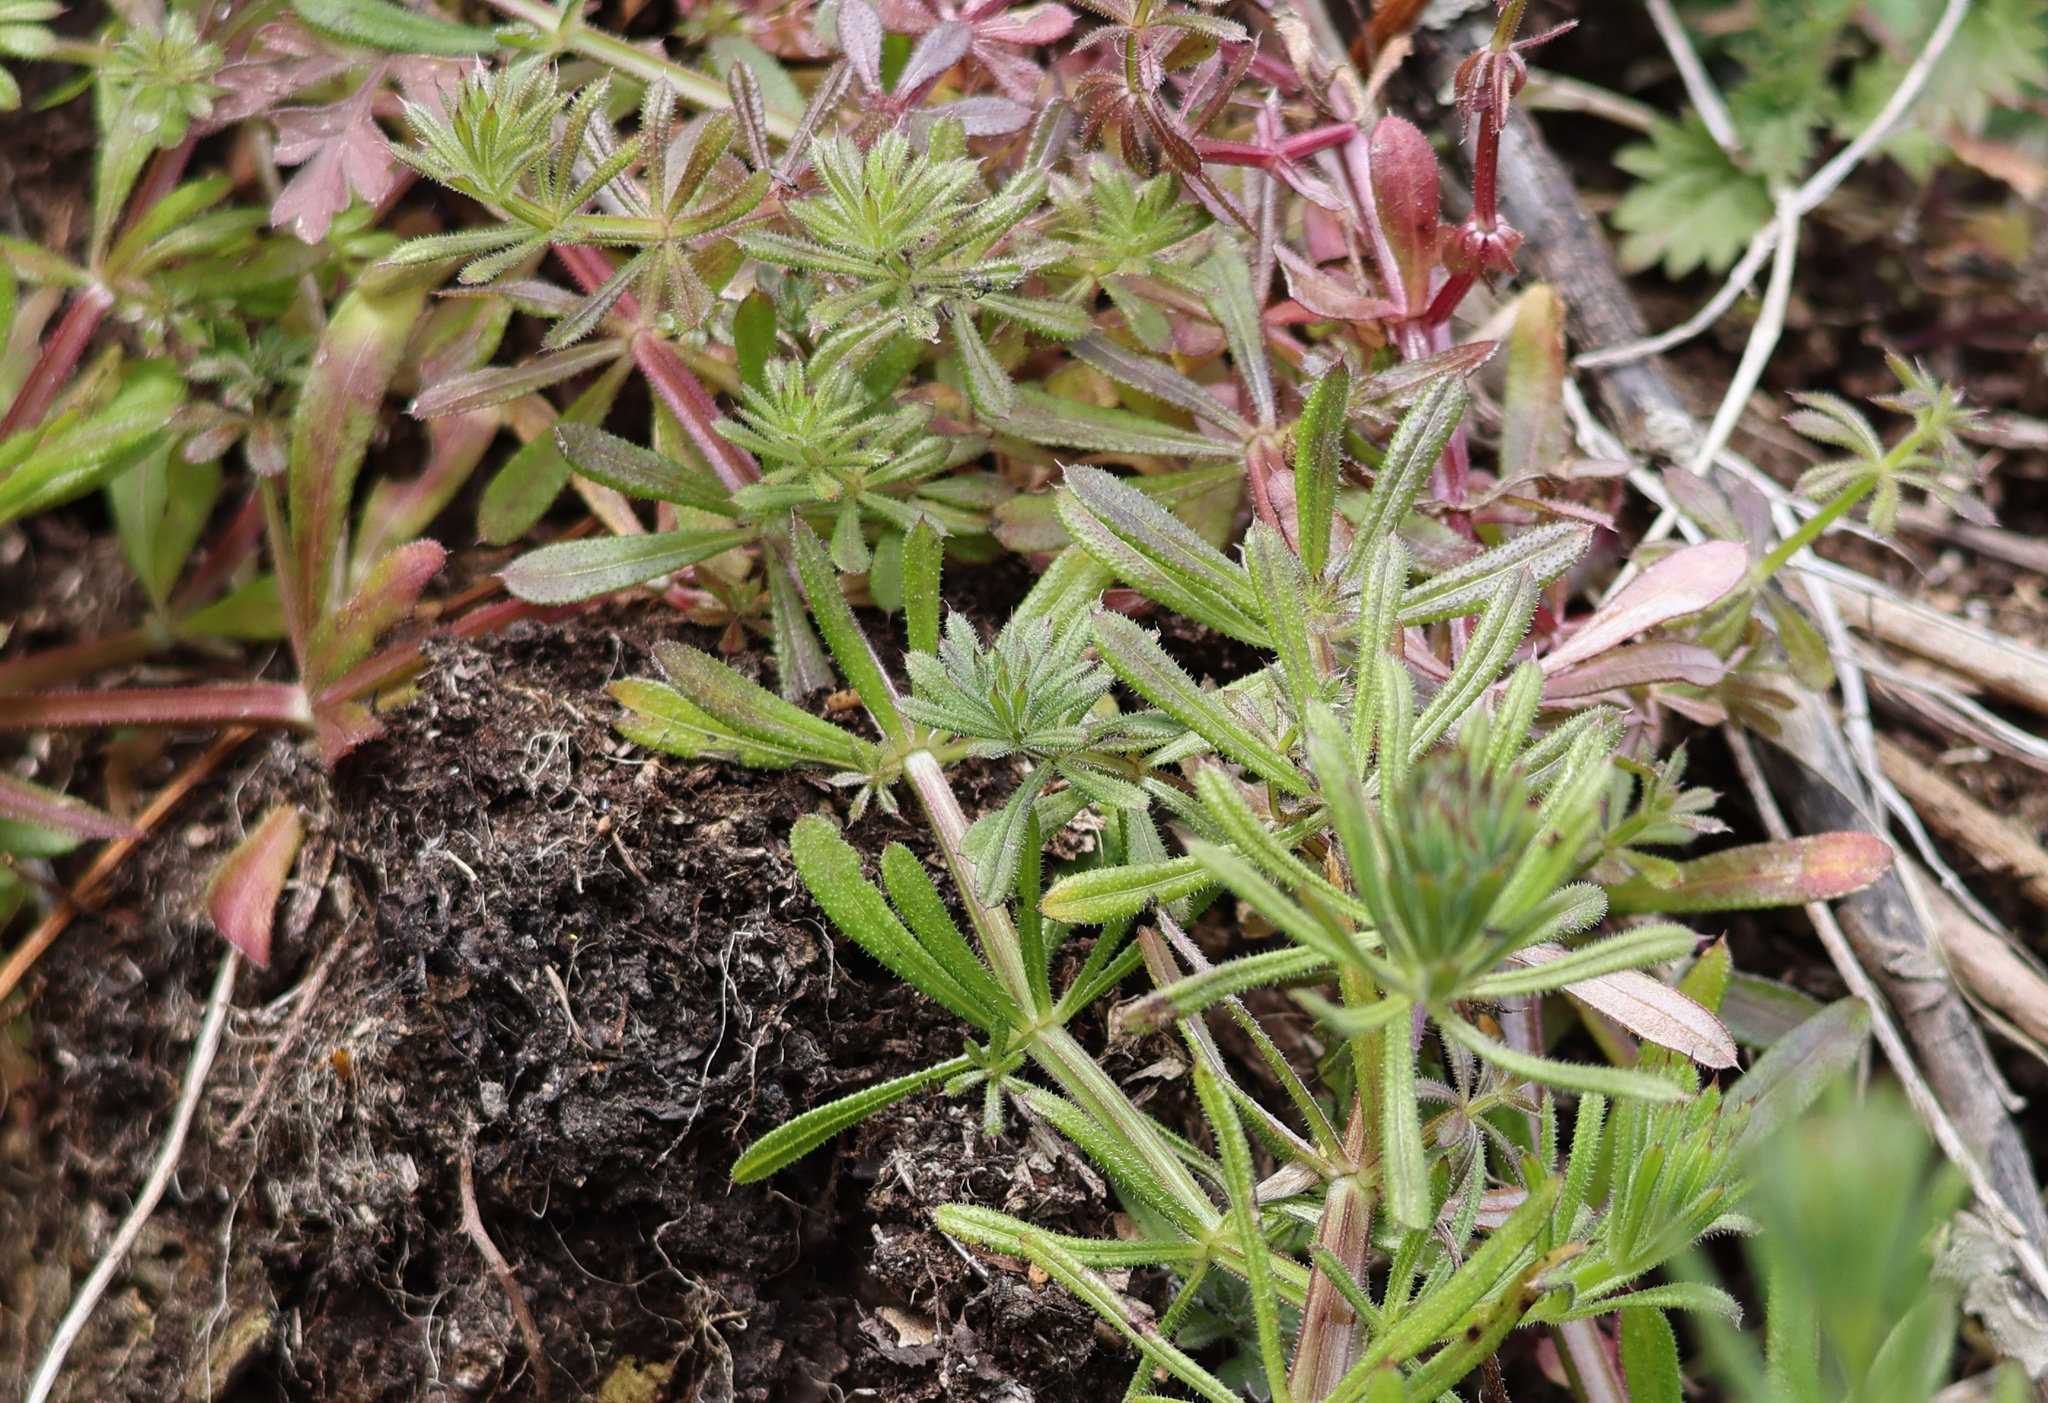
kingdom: Plantae
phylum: Tracheophyta
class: Magnoliopsida
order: Gentianales
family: Rubiaceae
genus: Galium
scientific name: Galium aparine
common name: Cleavers
